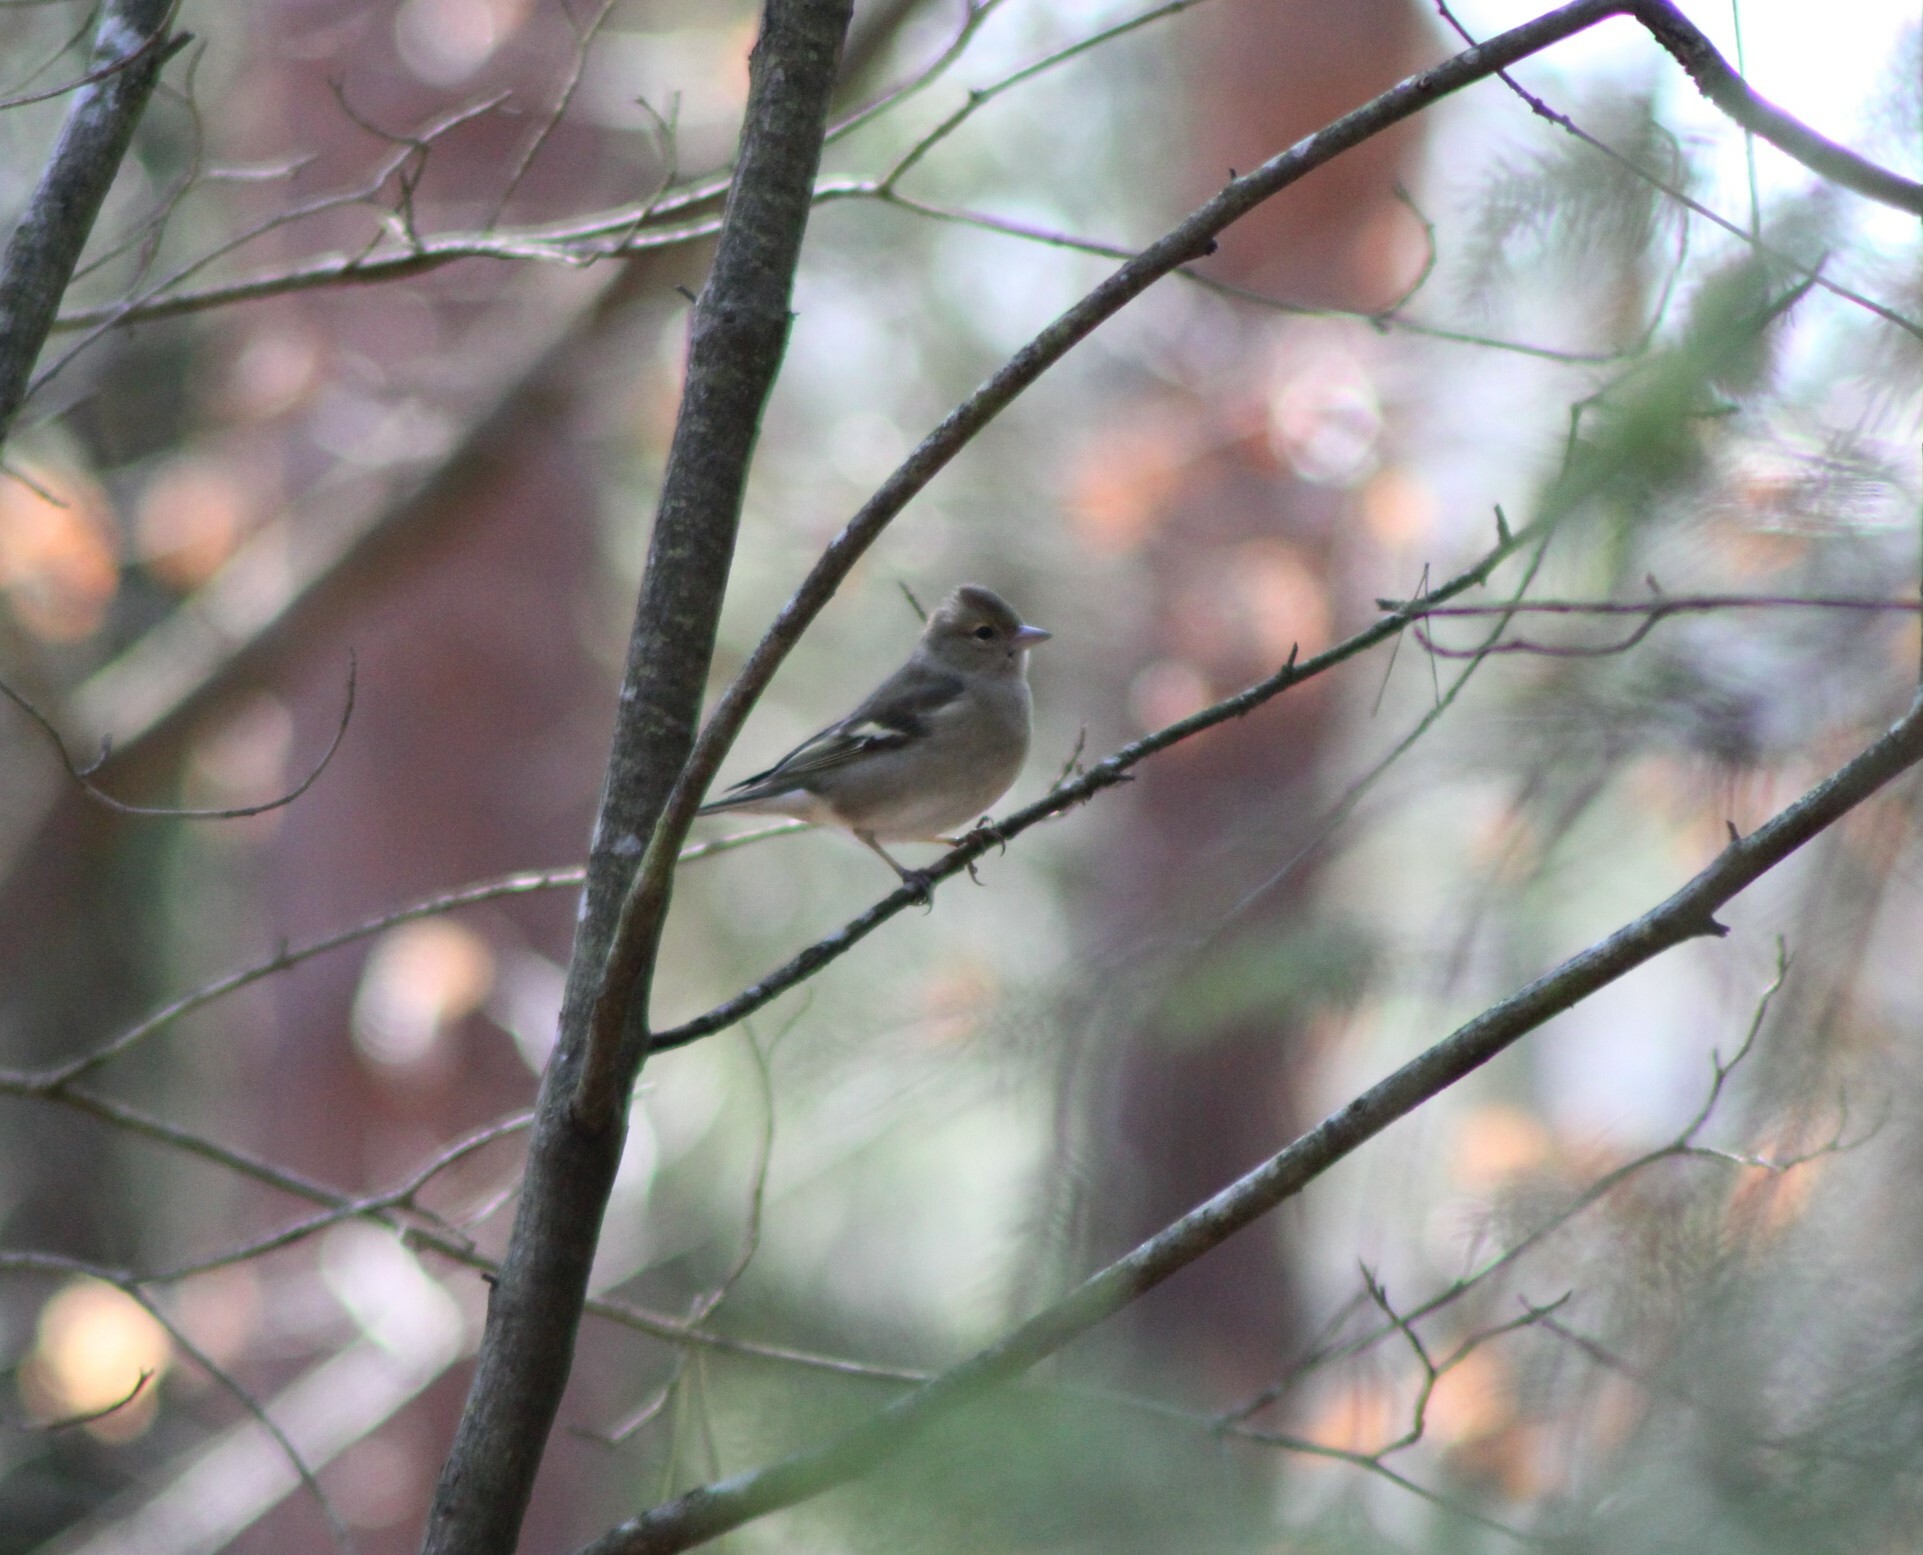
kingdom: Animalia
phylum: Chordata
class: Aves
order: Passeriformes
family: Fringillidae
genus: Fringilla
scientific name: Fringilla coelebs
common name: Common chaffinch
